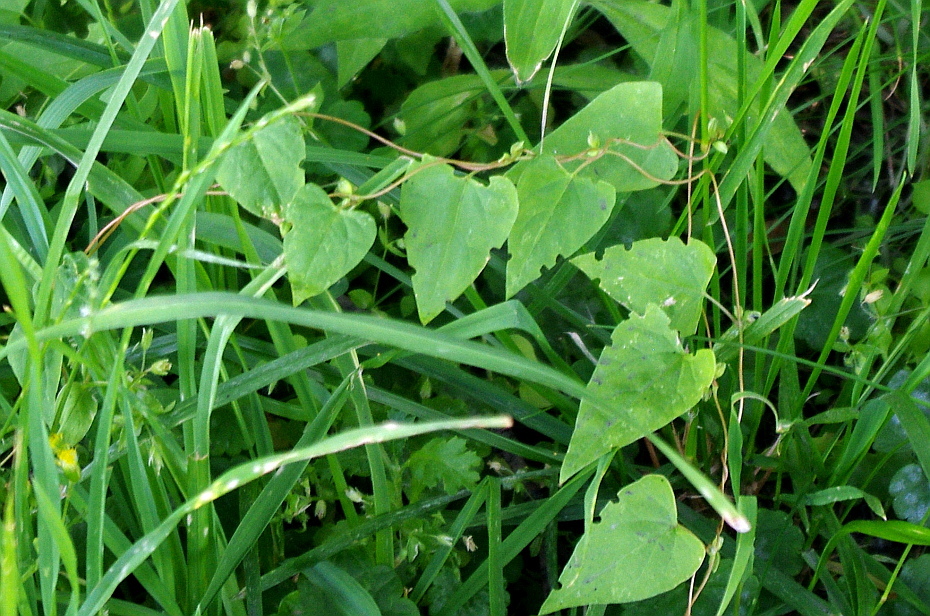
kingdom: Plantae
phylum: Tracheophyta
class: Magnoliopsida
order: Caryophyllales
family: Polygonaceae
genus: Fallopia
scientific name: Fallopia convolvulus
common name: Black bindweed
